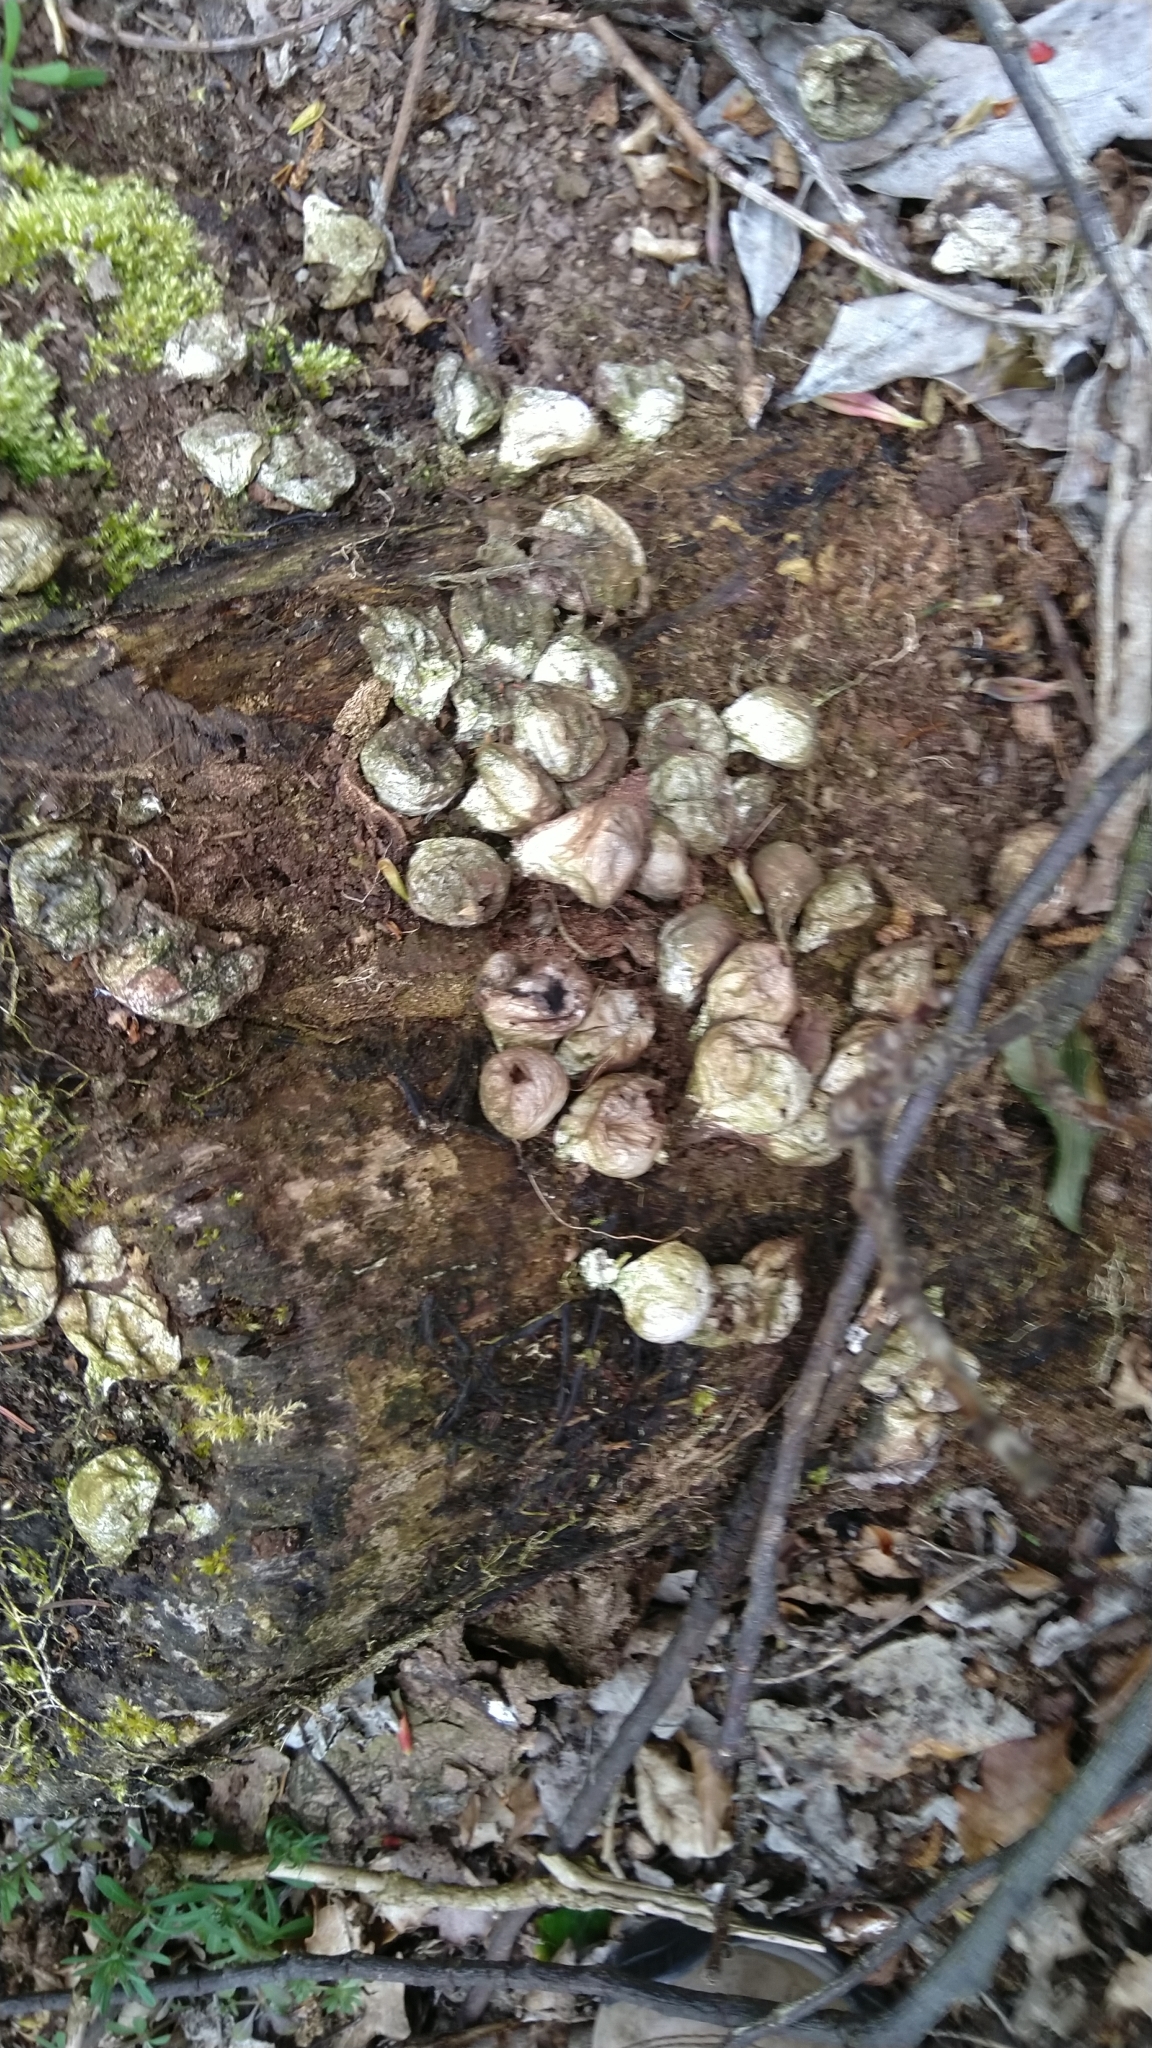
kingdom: Fungi
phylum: Basidiomycota
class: Agaricomycetes
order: Agaricales
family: Lycoperdaceae
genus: Apioperdon
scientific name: Apioperdon pyriforme
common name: Pear-shaped puffball
